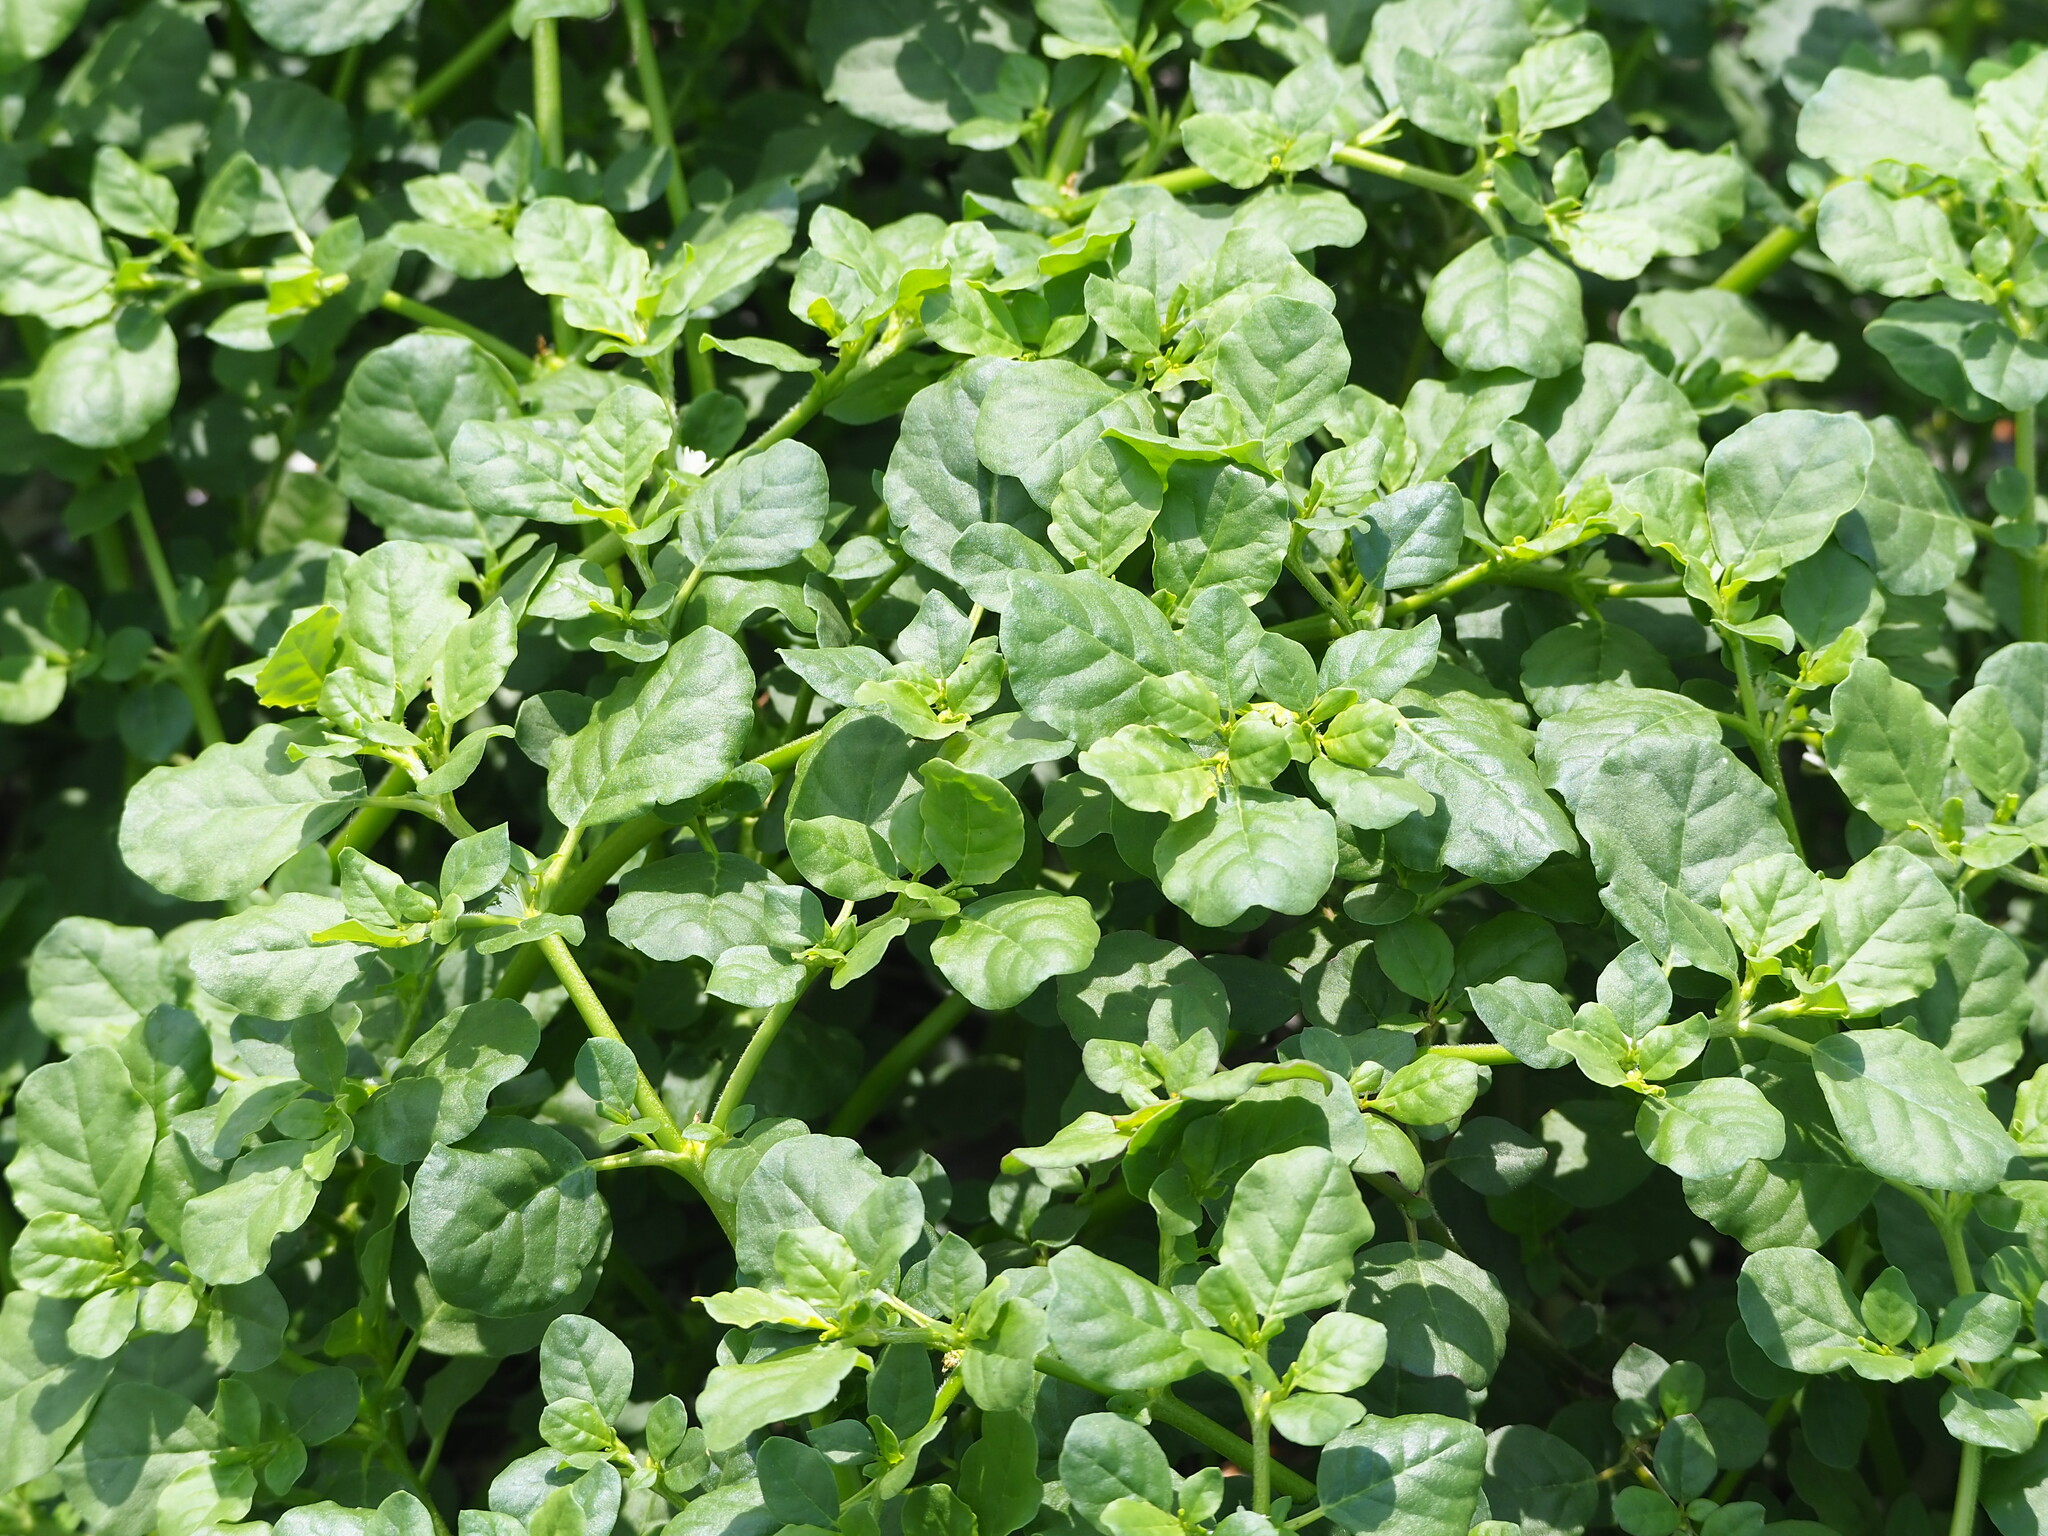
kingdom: Plantae
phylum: Tracheophyta
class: Magnoliopsida
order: Caryophyllales
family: Aizoaceae
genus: Trianthema
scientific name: Trianthema portulacastrum
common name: Desert horsepurslane
